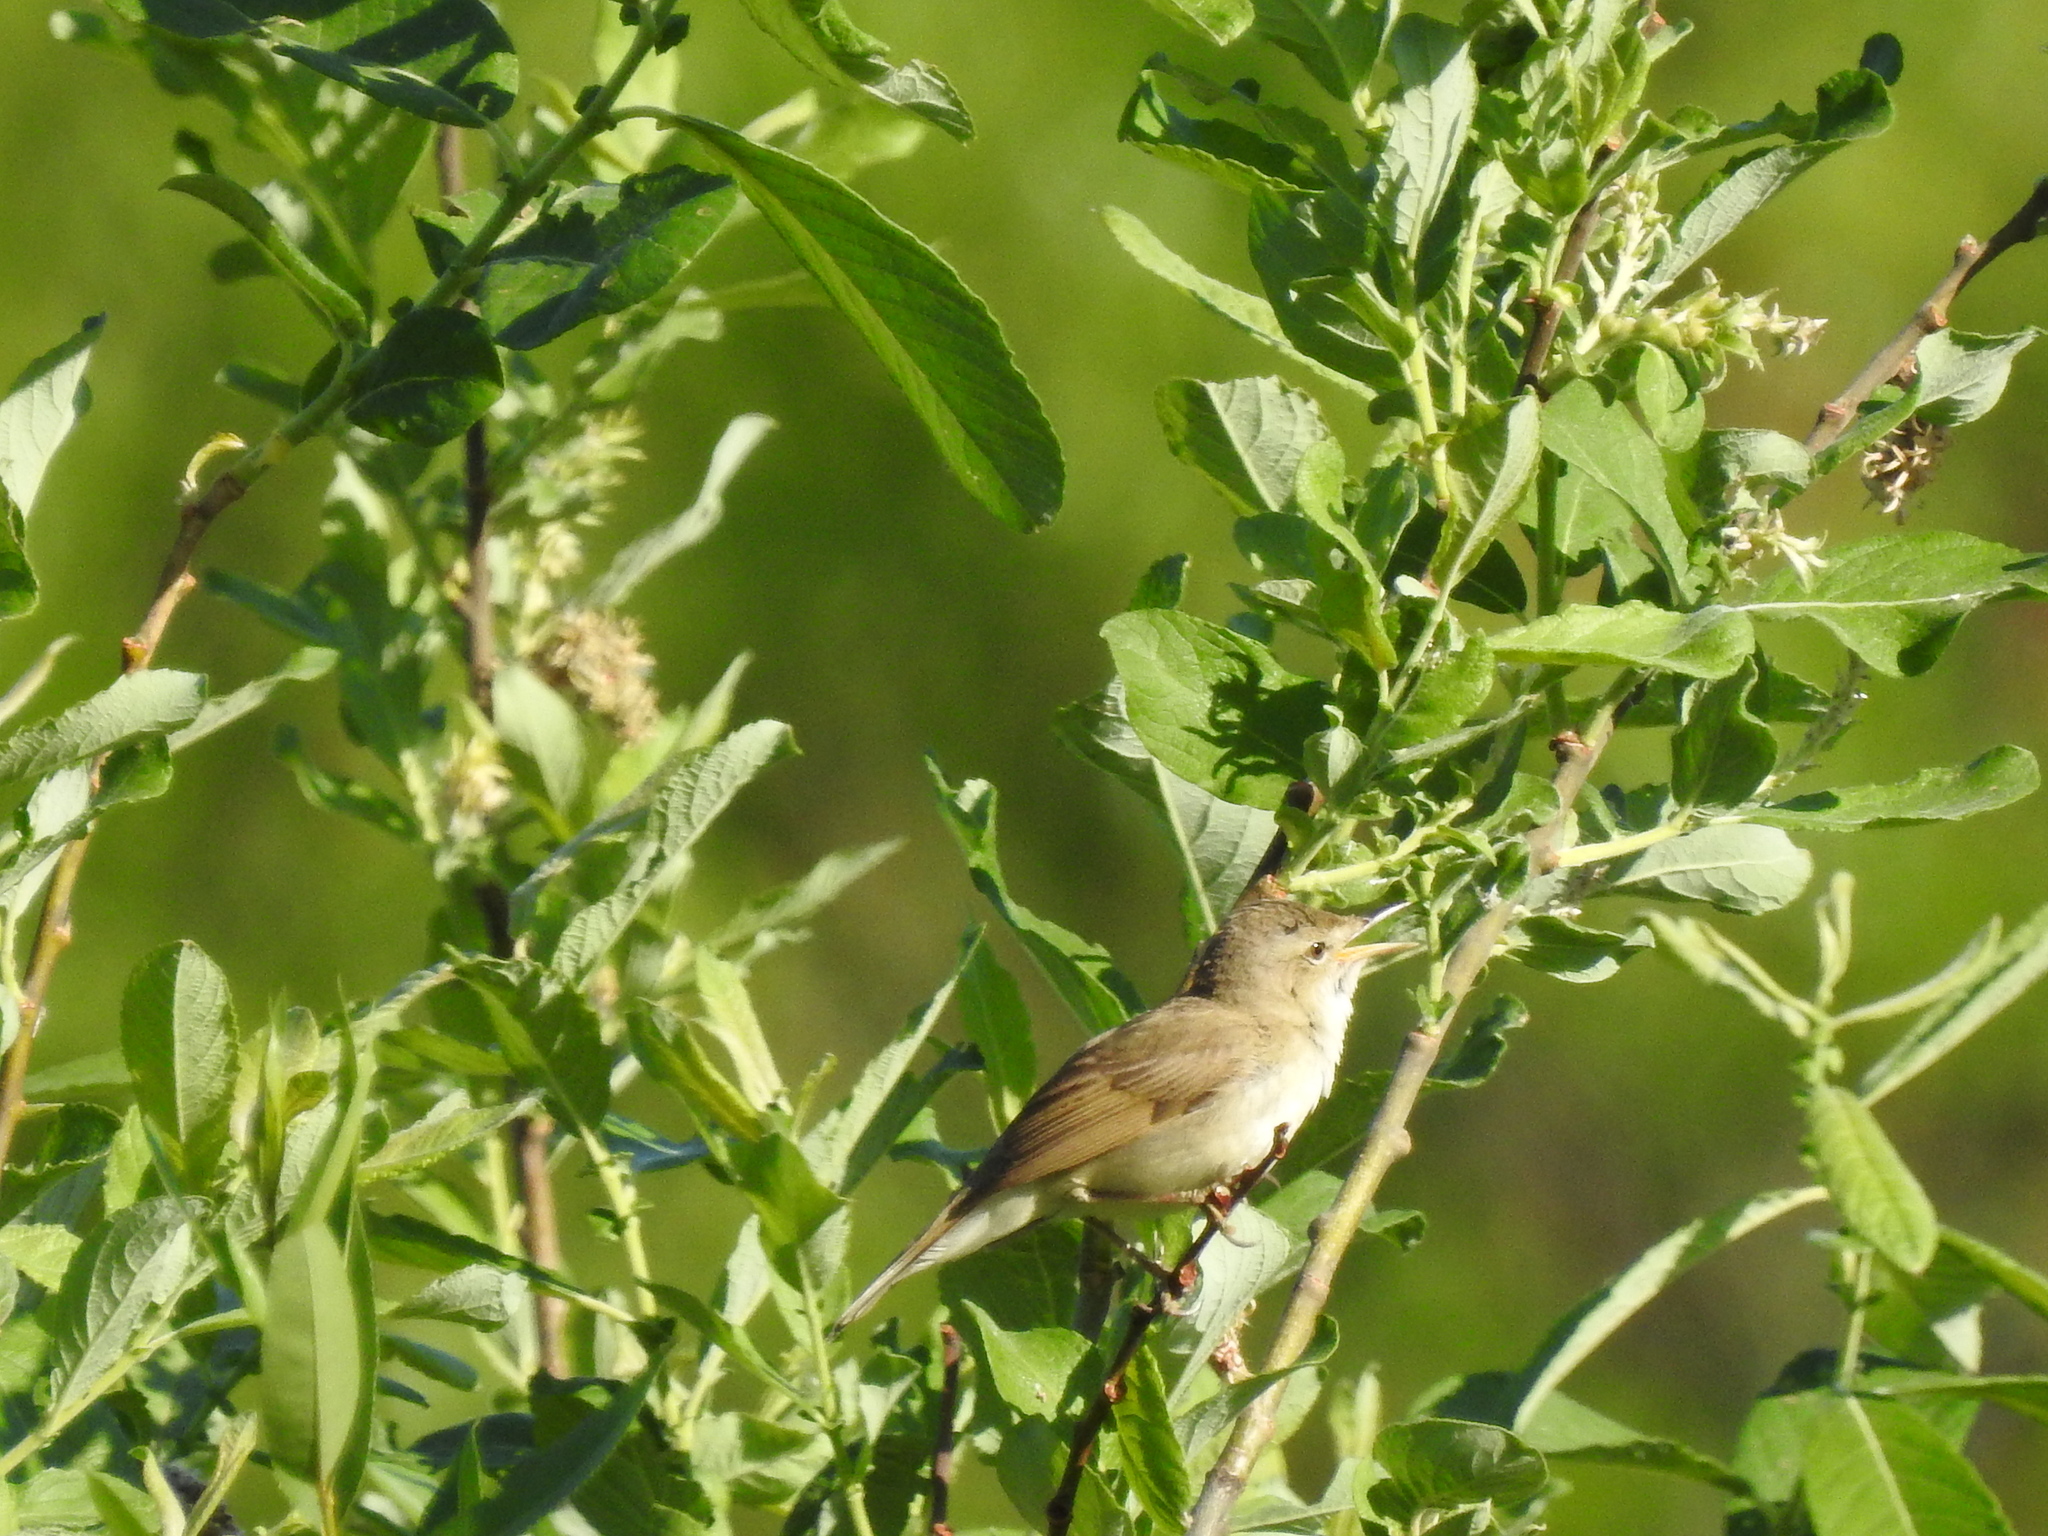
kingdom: Animalia
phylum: Chordata
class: Aves
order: Passeriformes
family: Acrocephalidae
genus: Acrocephalus
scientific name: Acrocephalus dumetorum
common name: Blyth's reed warbler
